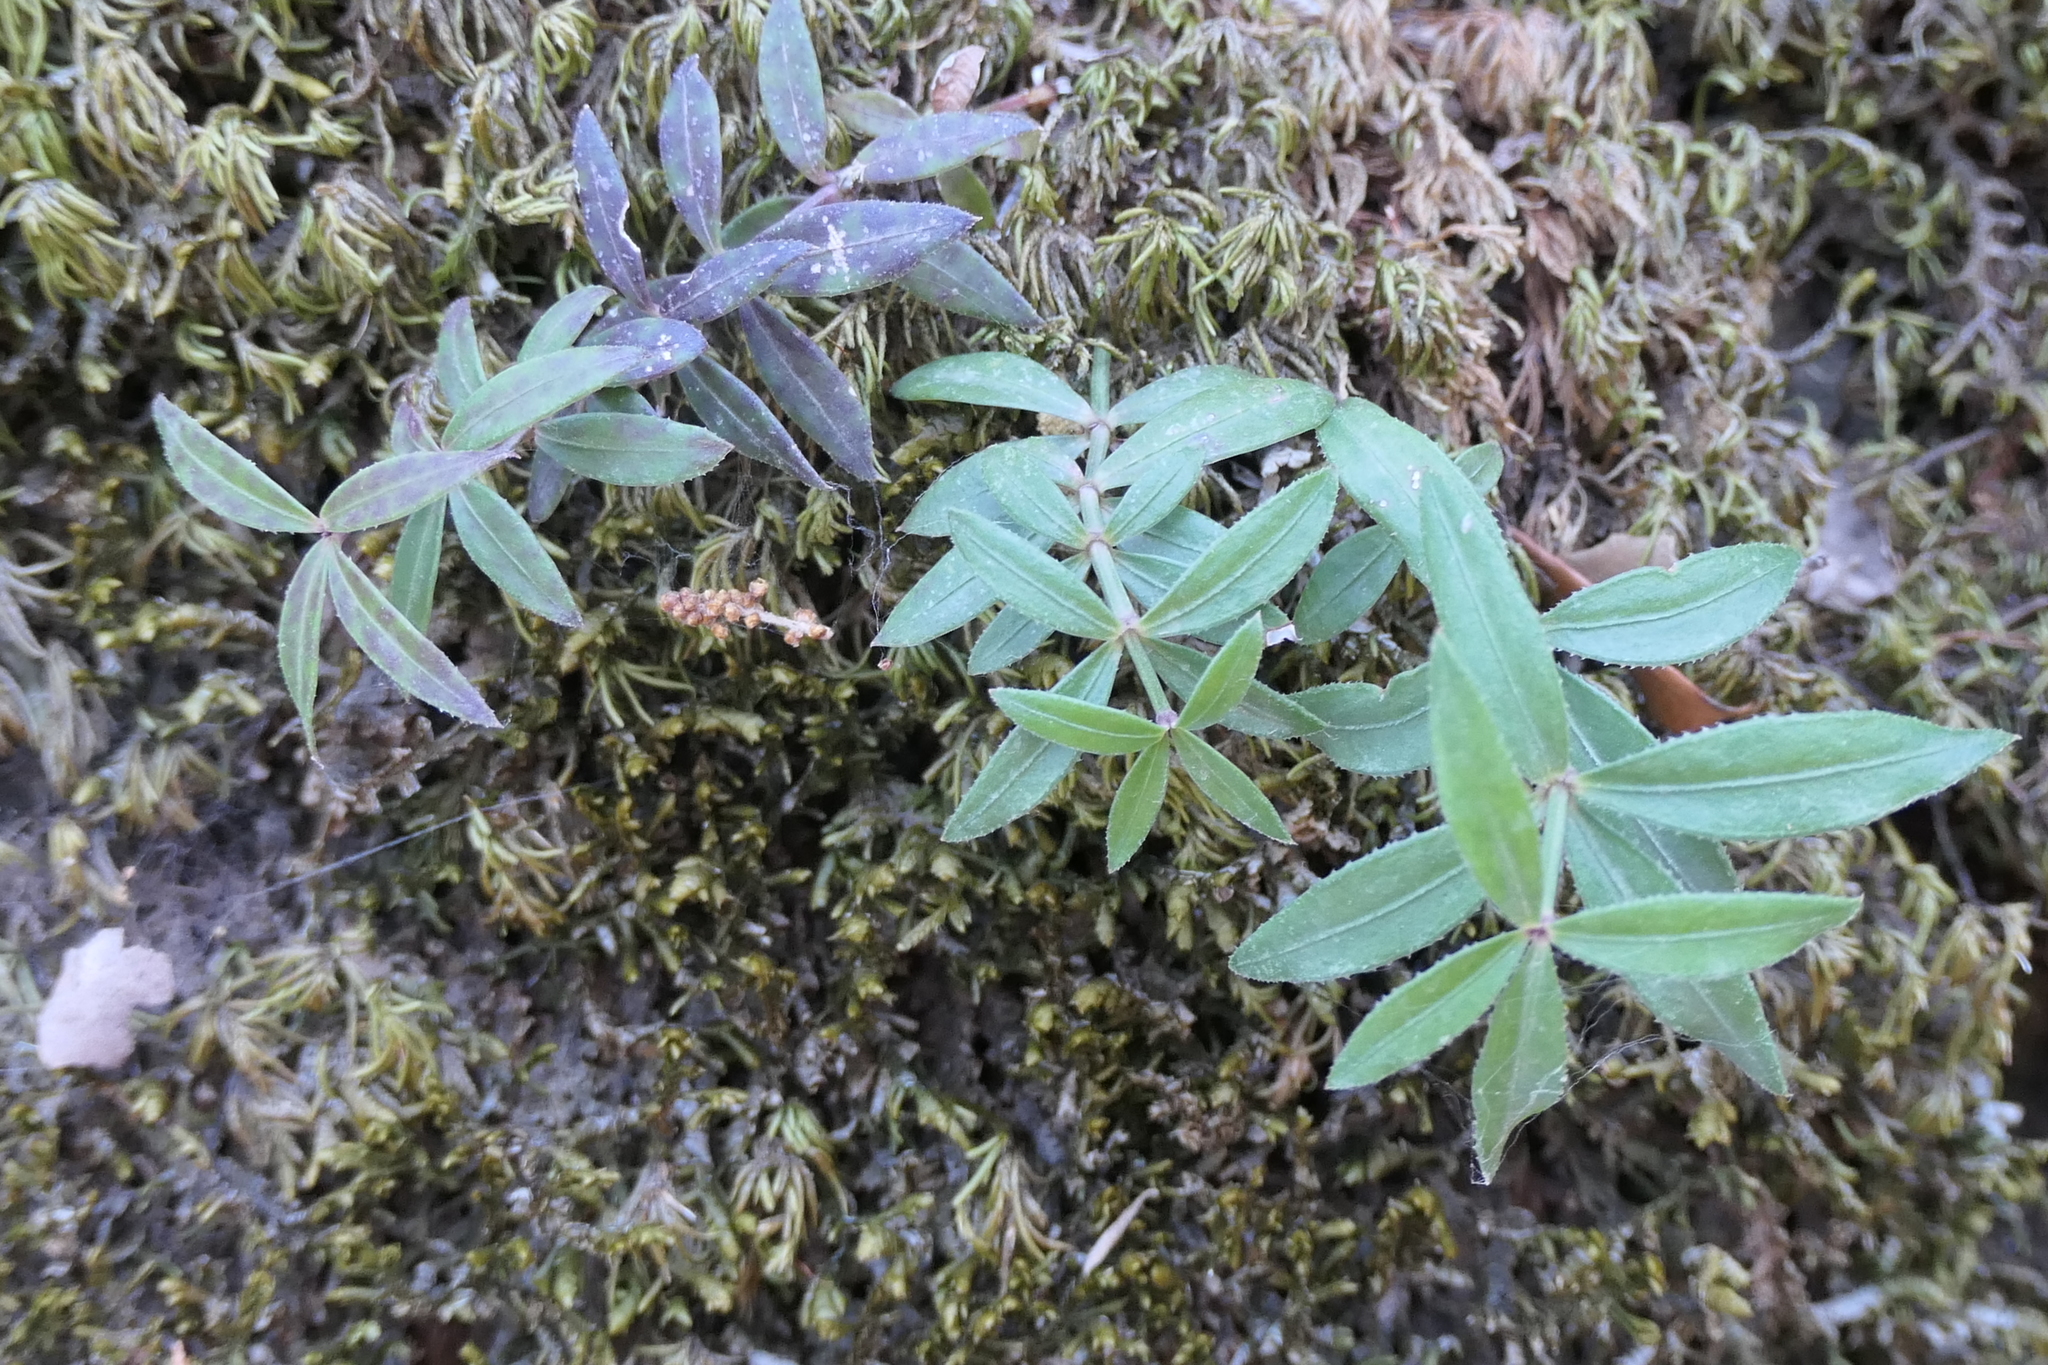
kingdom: Plantae
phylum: Tracheophyta
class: Magnoliopsida
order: Gentianales
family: Rubiaceae
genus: Rubia
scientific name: Rubia peregrina
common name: Wild madder
